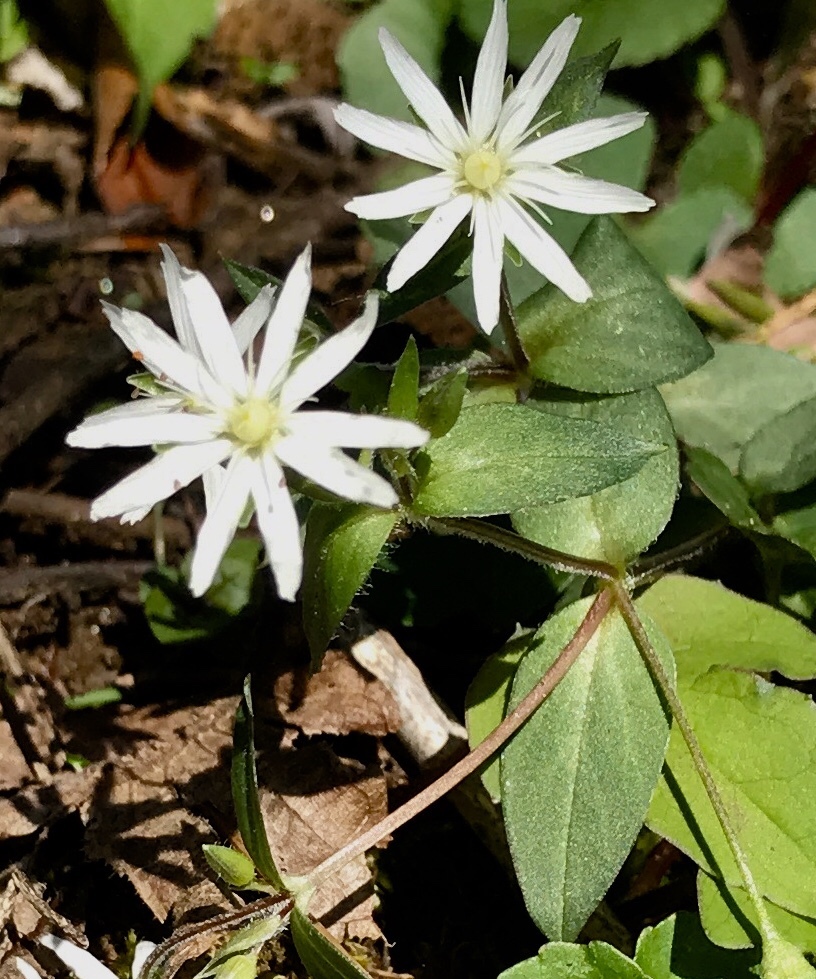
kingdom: Plantae
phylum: Tracheophyta
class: Magnoliopsida
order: Caryophyllales
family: Caryophyllaceae
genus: Stellaria
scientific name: Stellaria pubera
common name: Star chickweed
